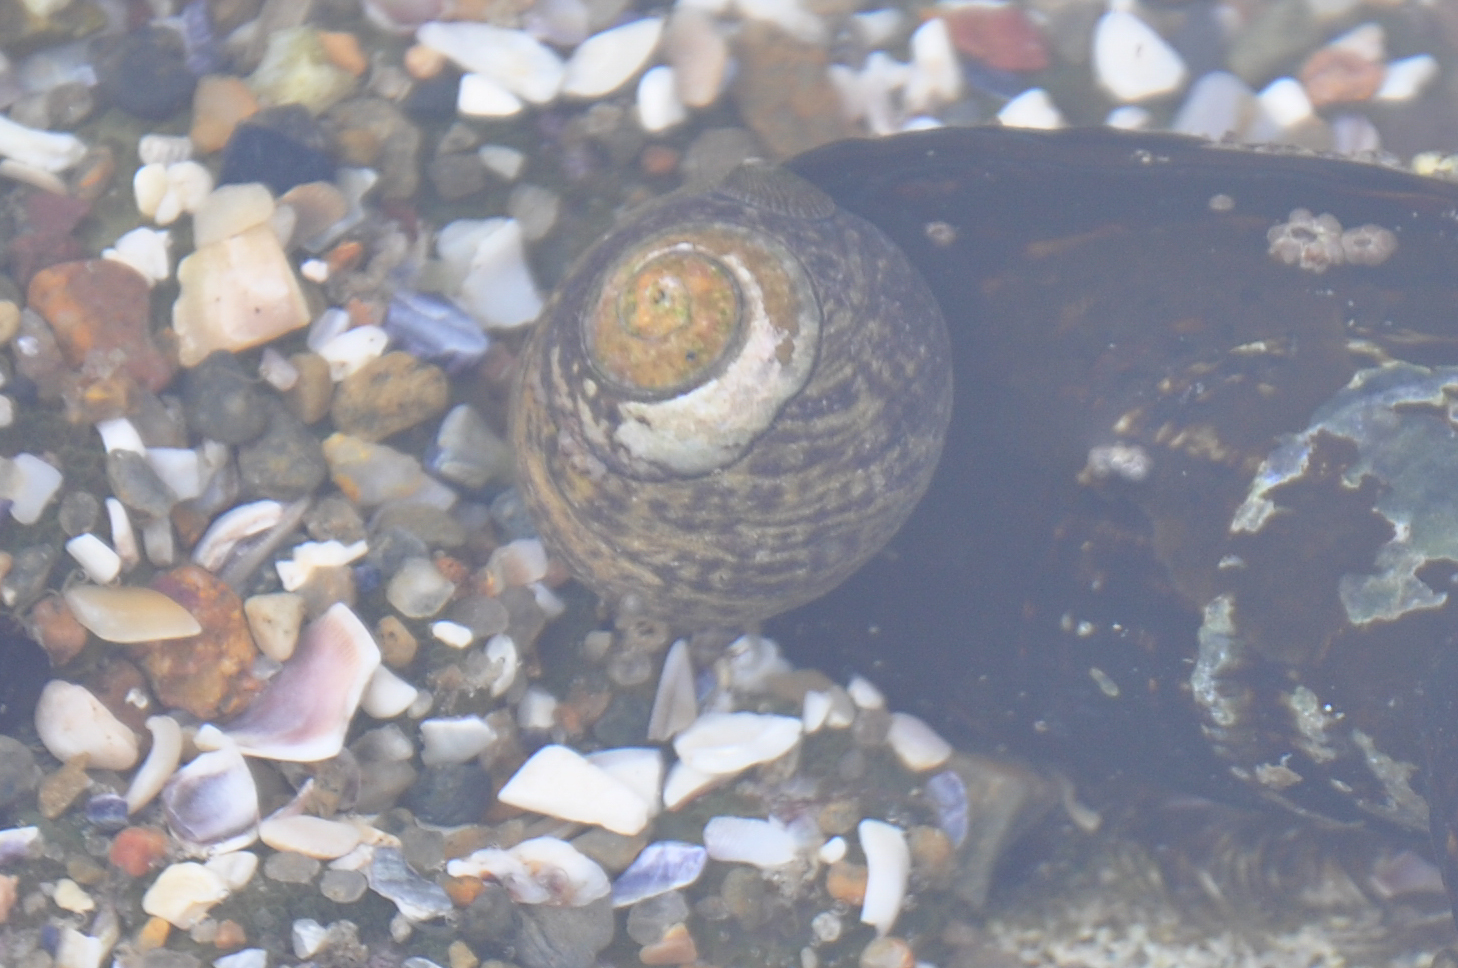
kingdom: Animalia
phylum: Mollusca
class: Gastropoda
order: Trochida
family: Tegulidae
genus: Tegula
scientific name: Tegula gallina
